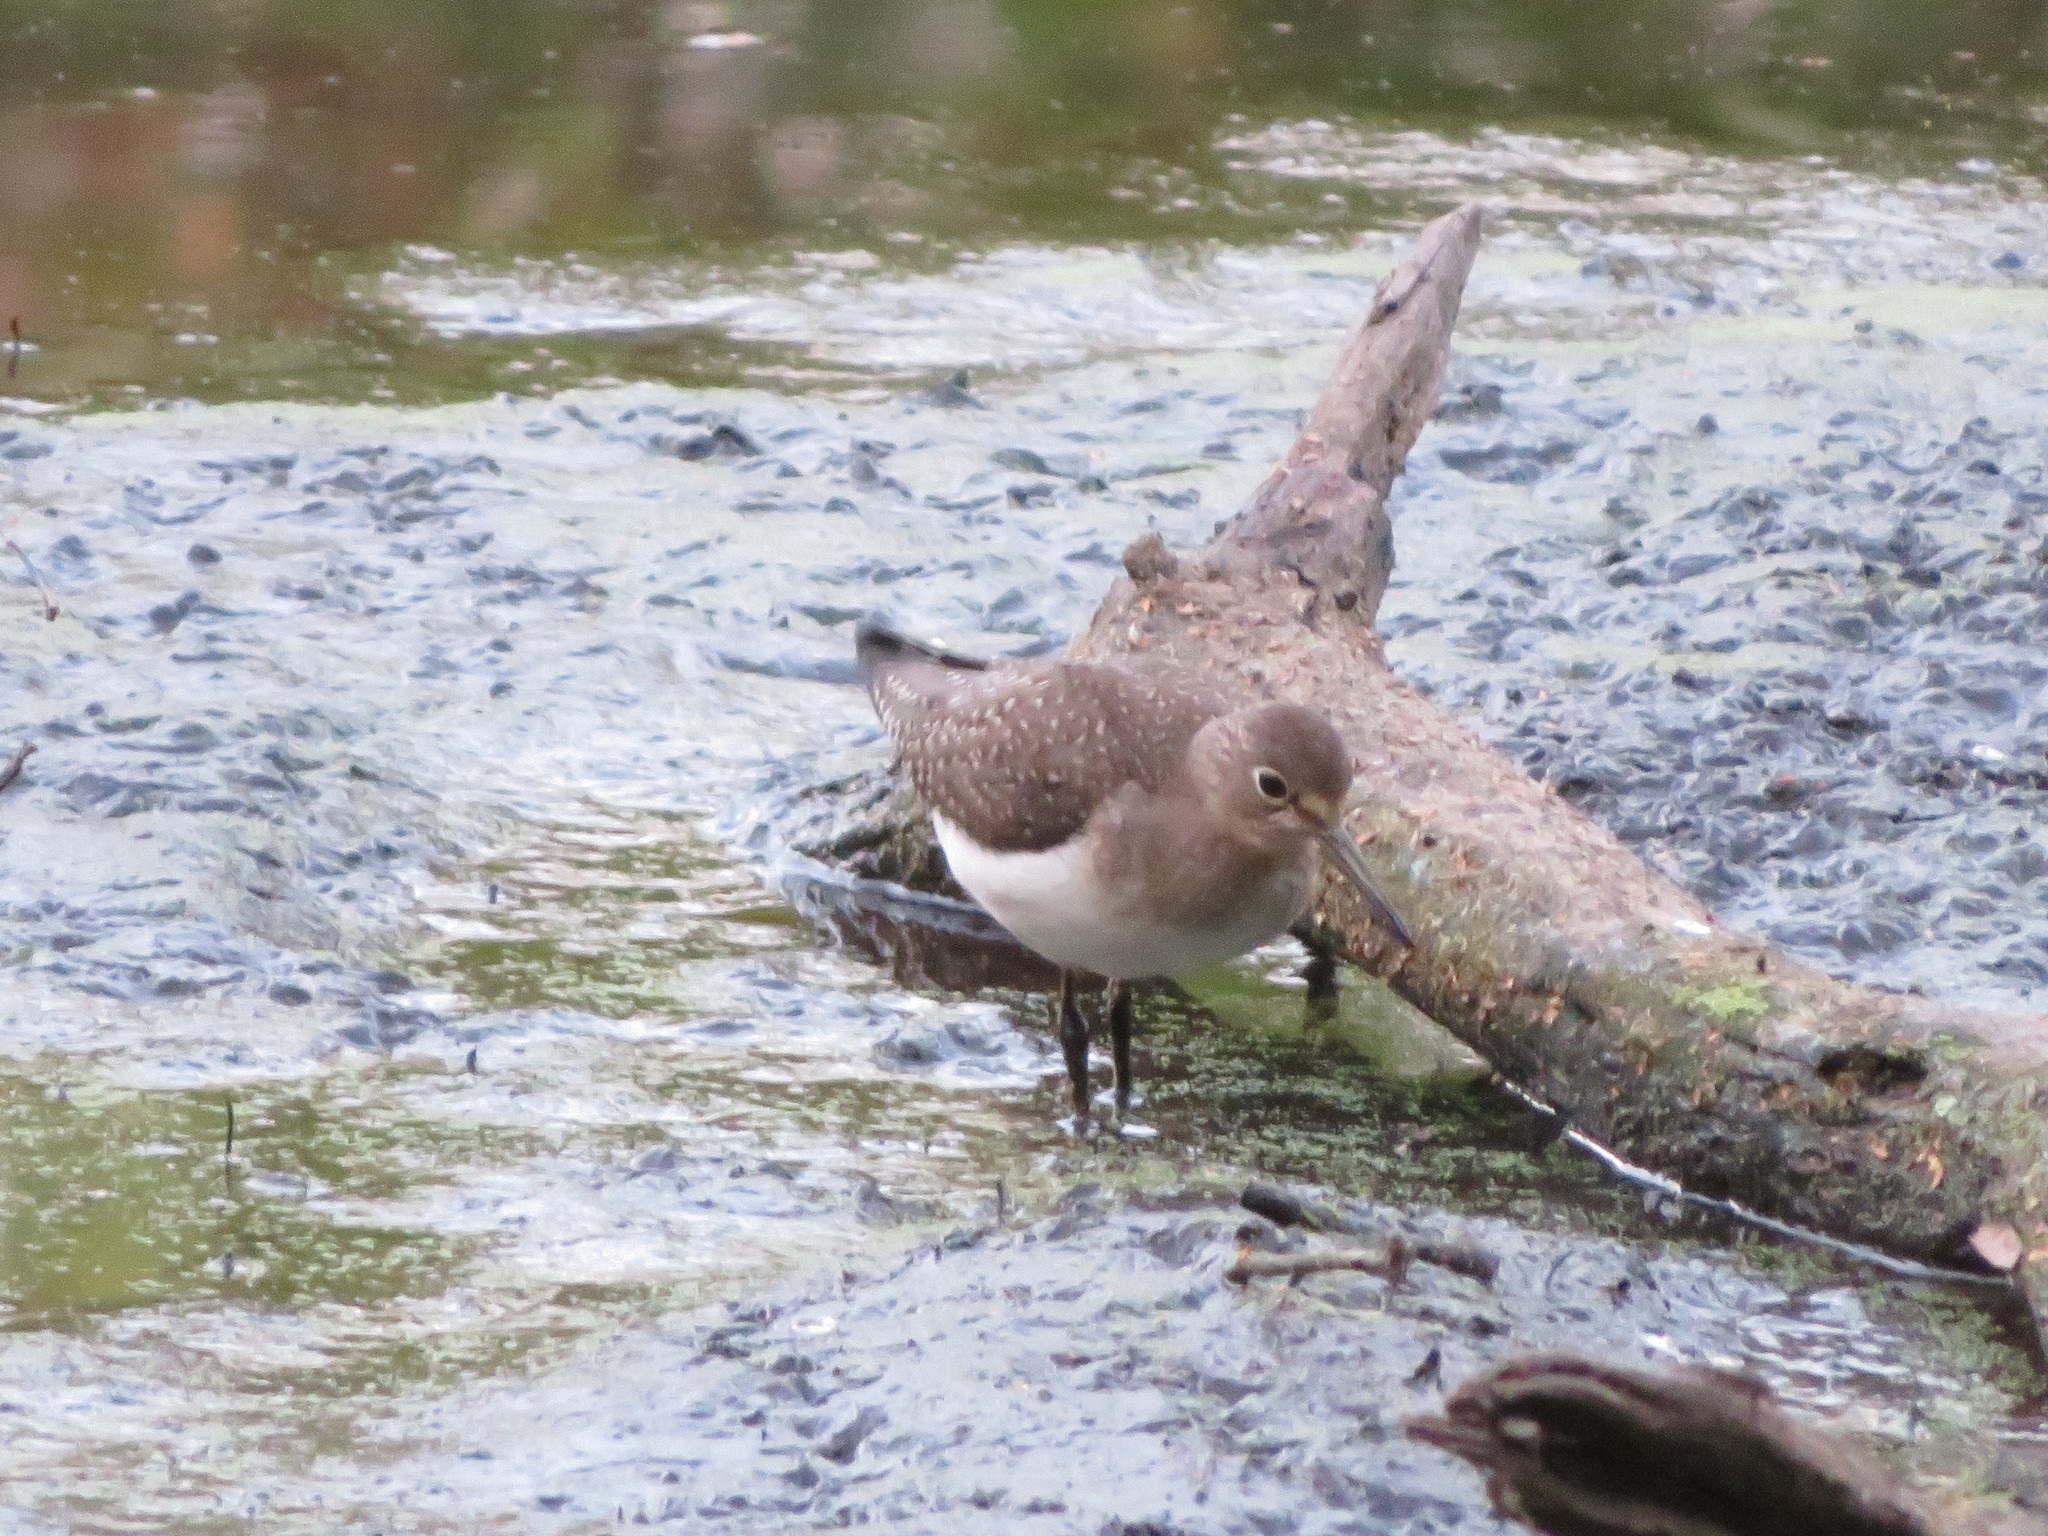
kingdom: Animalia
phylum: Chordata
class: Aves
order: Charadriiformes
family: Scolopacidae
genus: Tringa
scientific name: Tringa solitaria
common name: Solitary sandpiper
